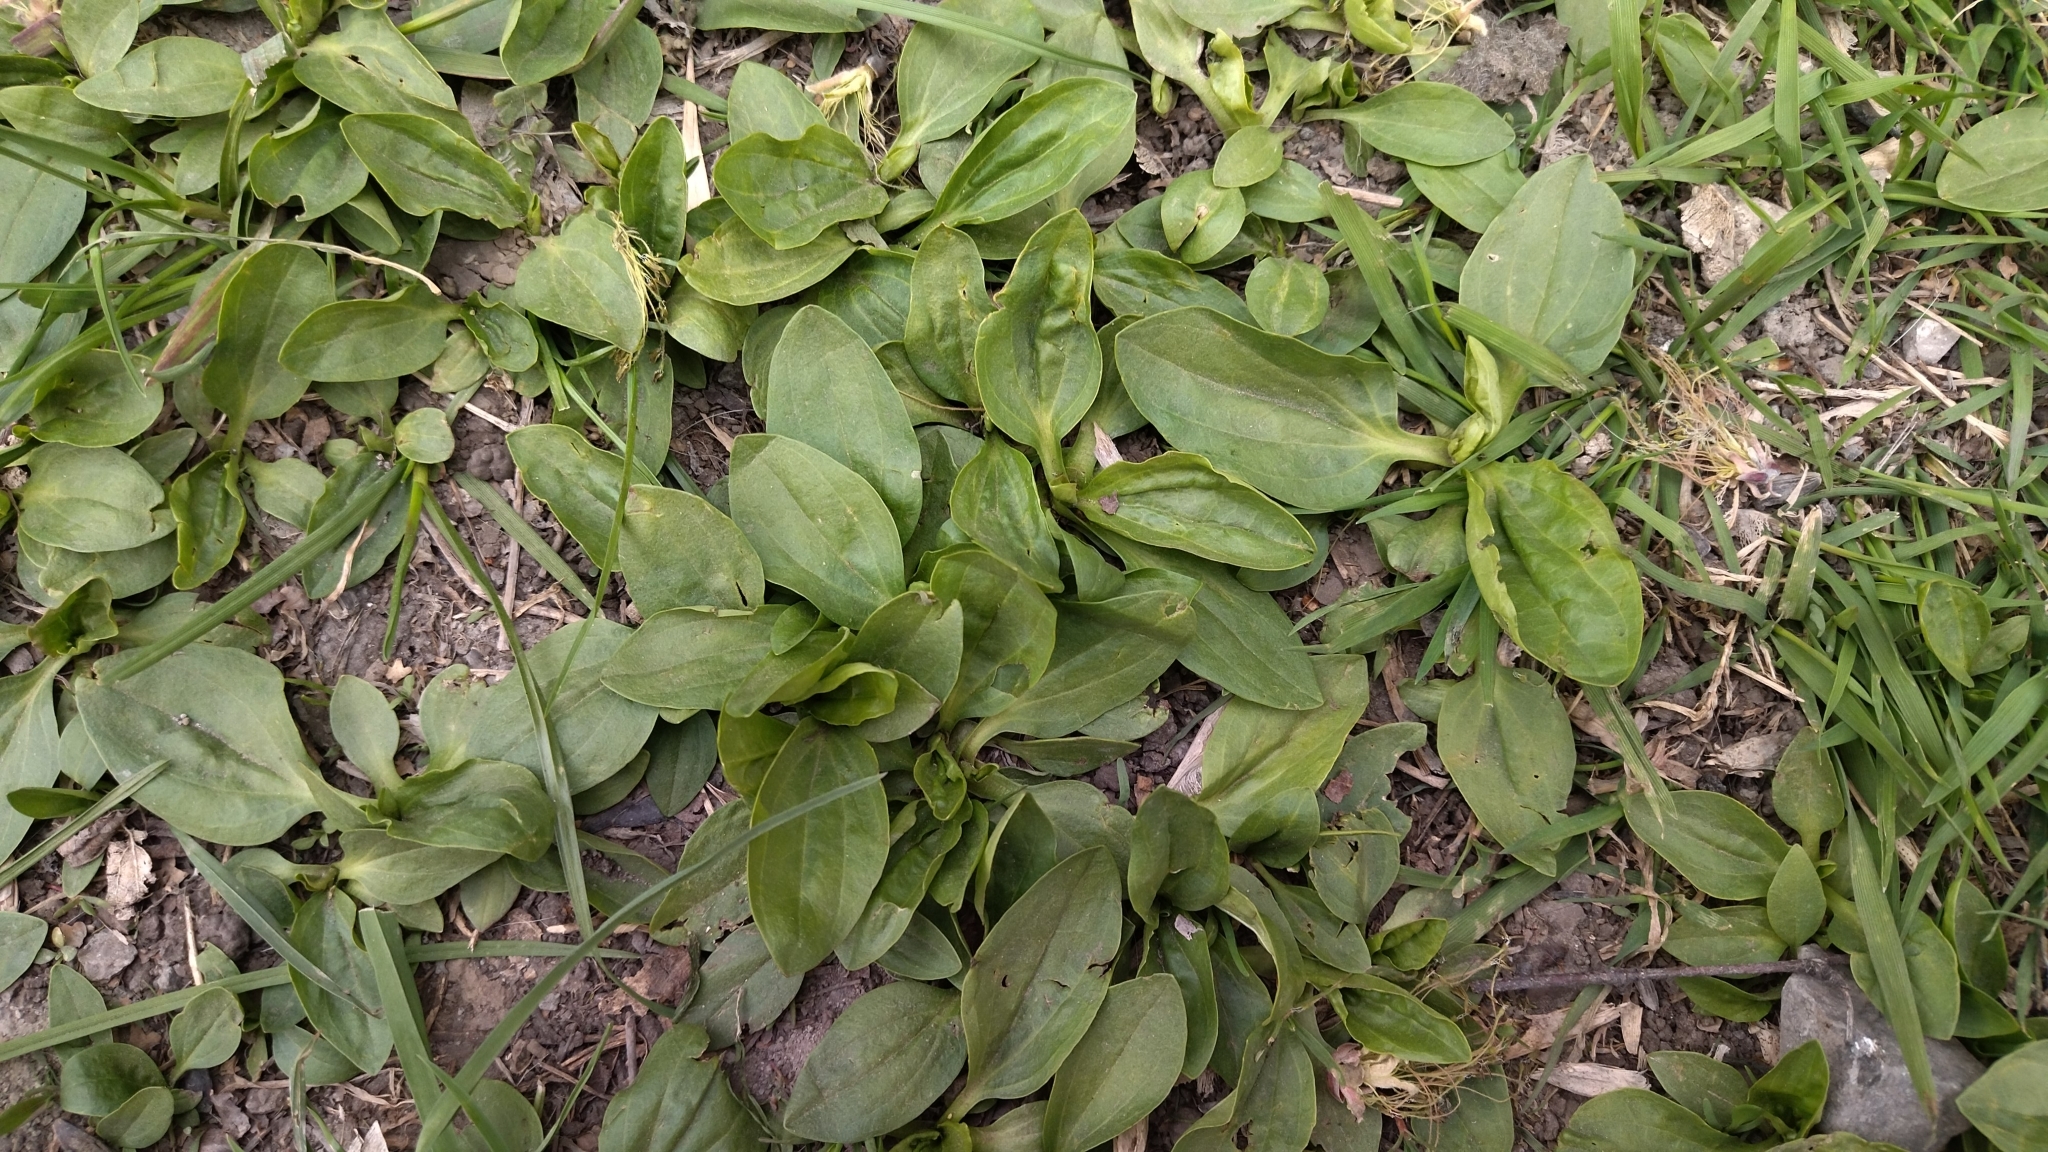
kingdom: Plantae
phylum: Tracheophyta
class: Magnoliopsida
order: Lamiales
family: Plantaginaceae
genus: Plantago
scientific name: Plantago major
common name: Common plantain
